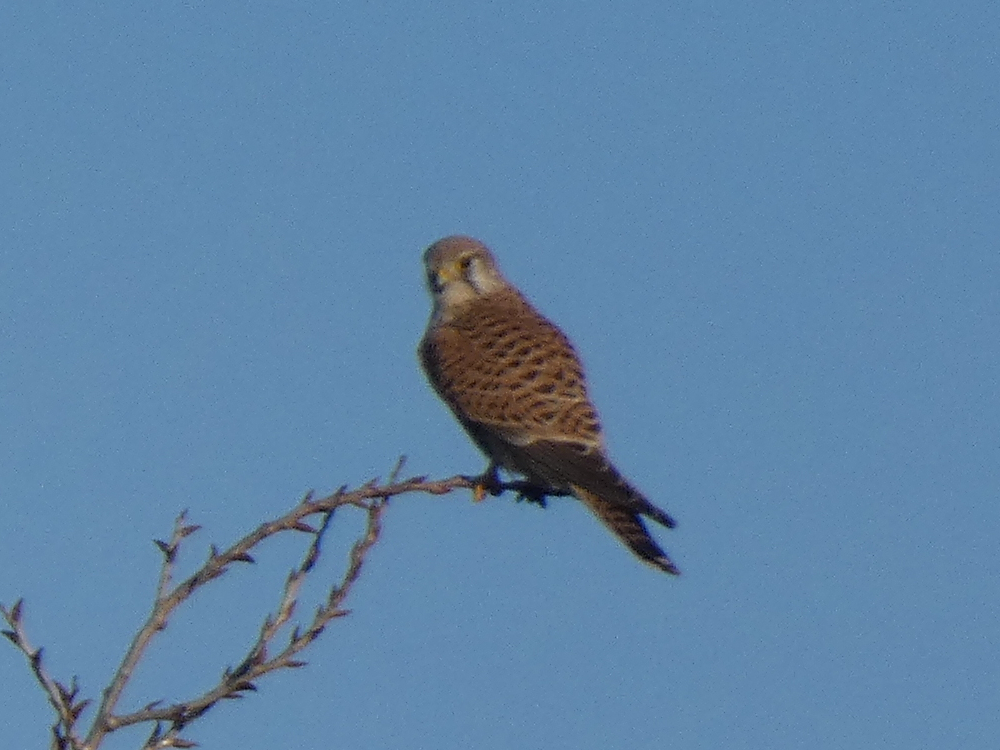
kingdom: Animalia
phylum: Chordata
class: Aves
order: Falconiformes
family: Falconidae
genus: Falco
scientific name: Falco tinnunculus
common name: Common kestrel
